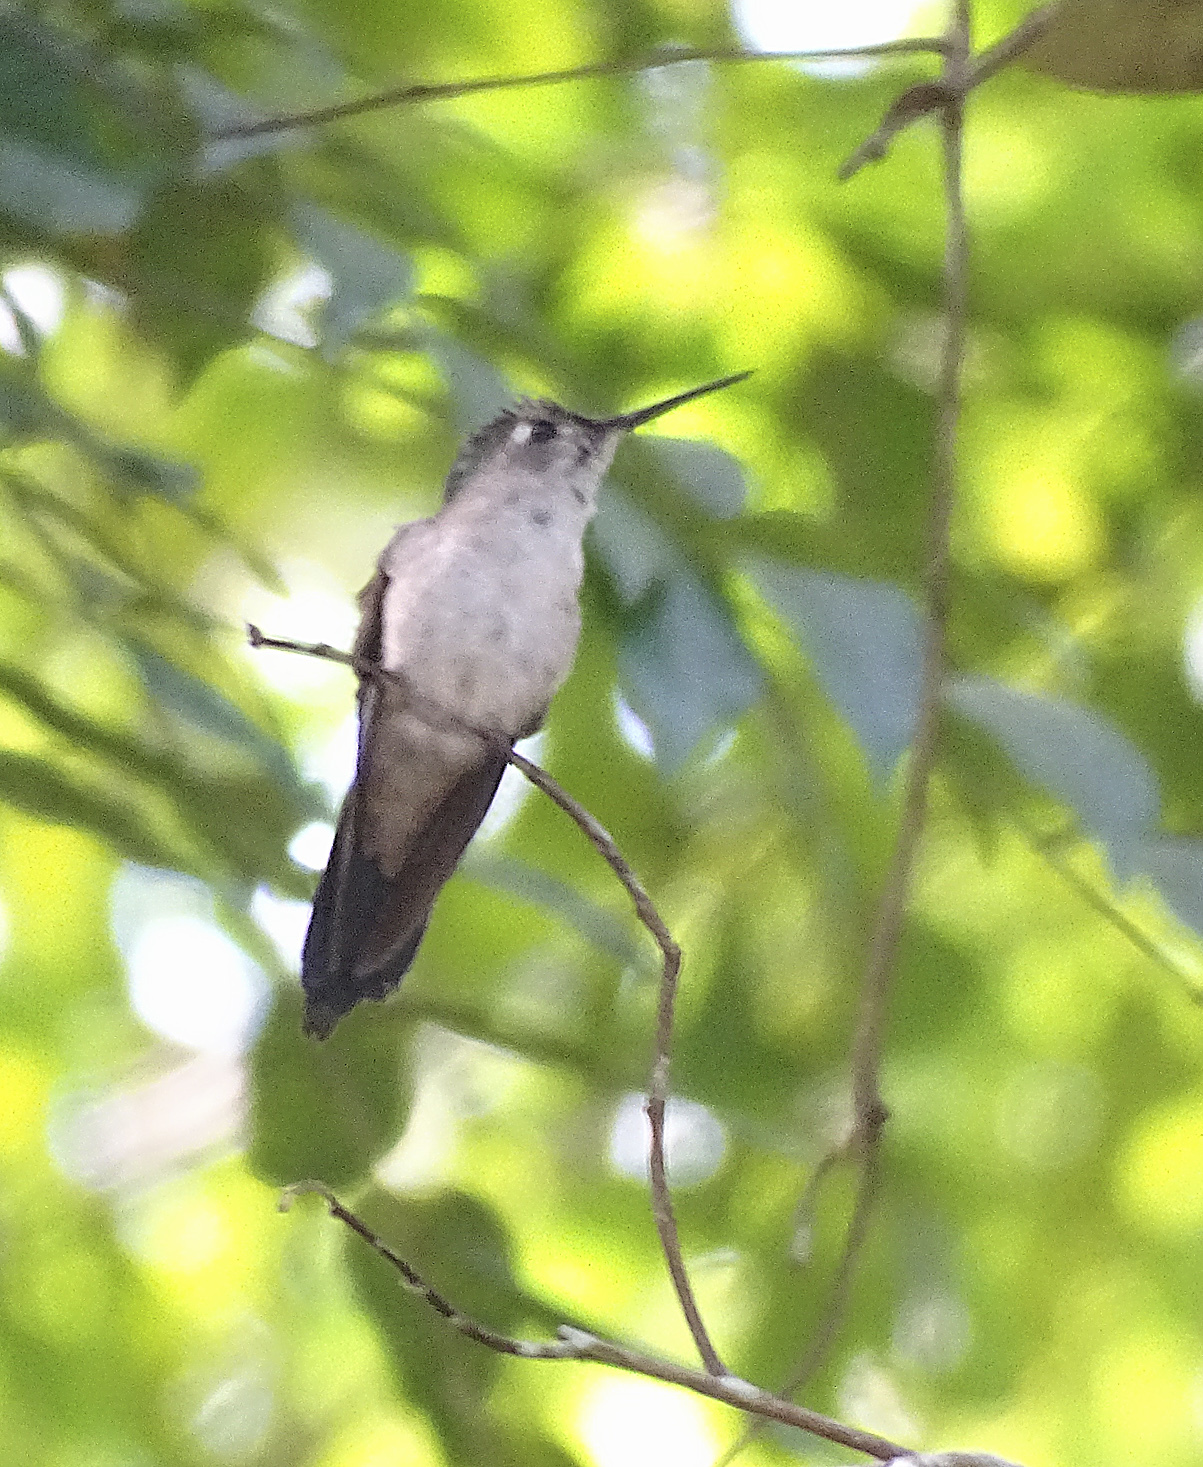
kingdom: Animalia
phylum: Chordata
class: Aves
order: Apodiformes
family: Trochilidae
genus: Pampa
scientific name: Pampa curvipennis
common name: Curve-winged sabrewing
